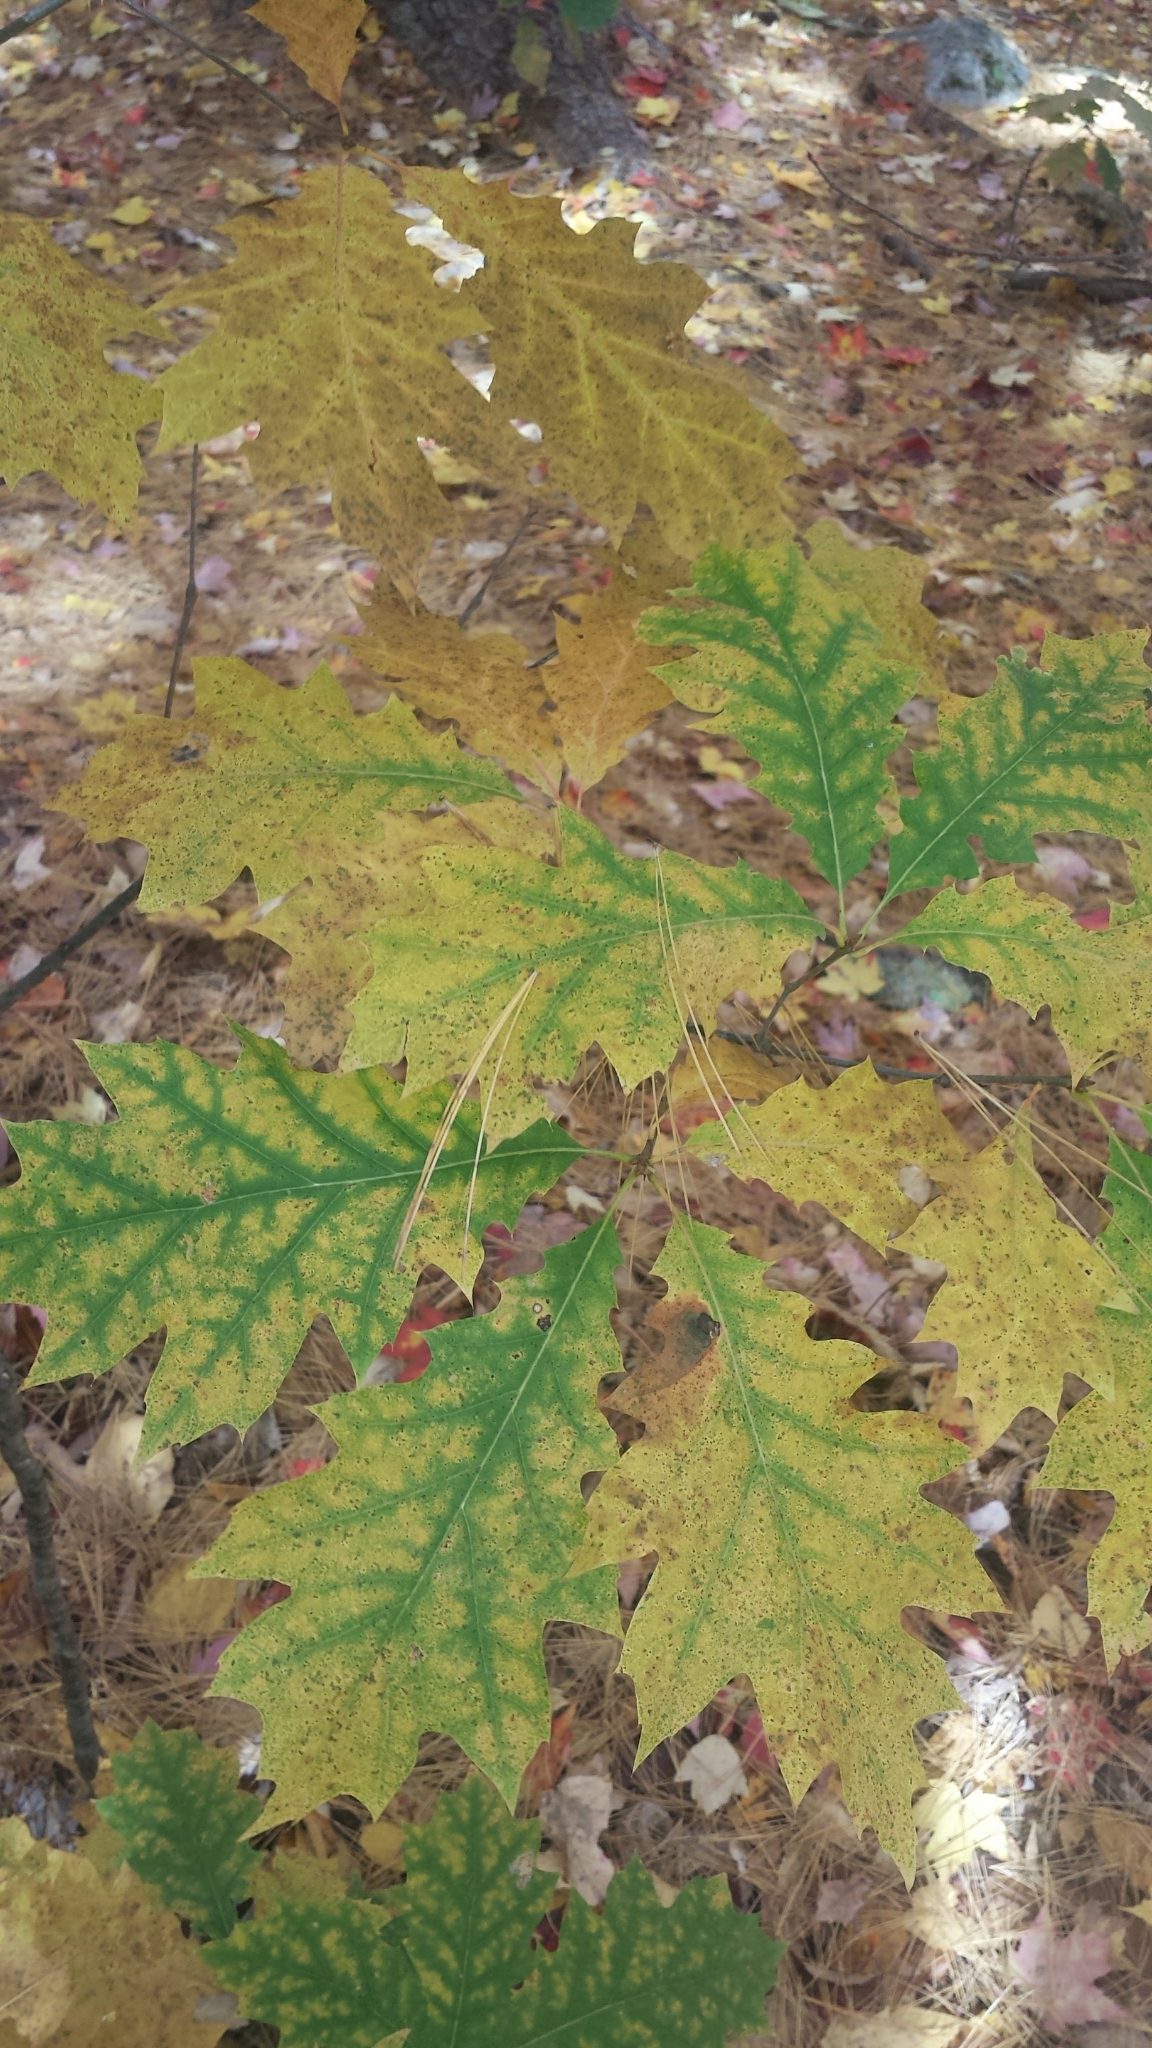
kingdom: Plantae
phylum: Tracheophyta
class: Magnoliopsida
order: Fagales
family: Fagaceae
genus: Quercus
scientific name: Quercus rubra
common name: Red oak
